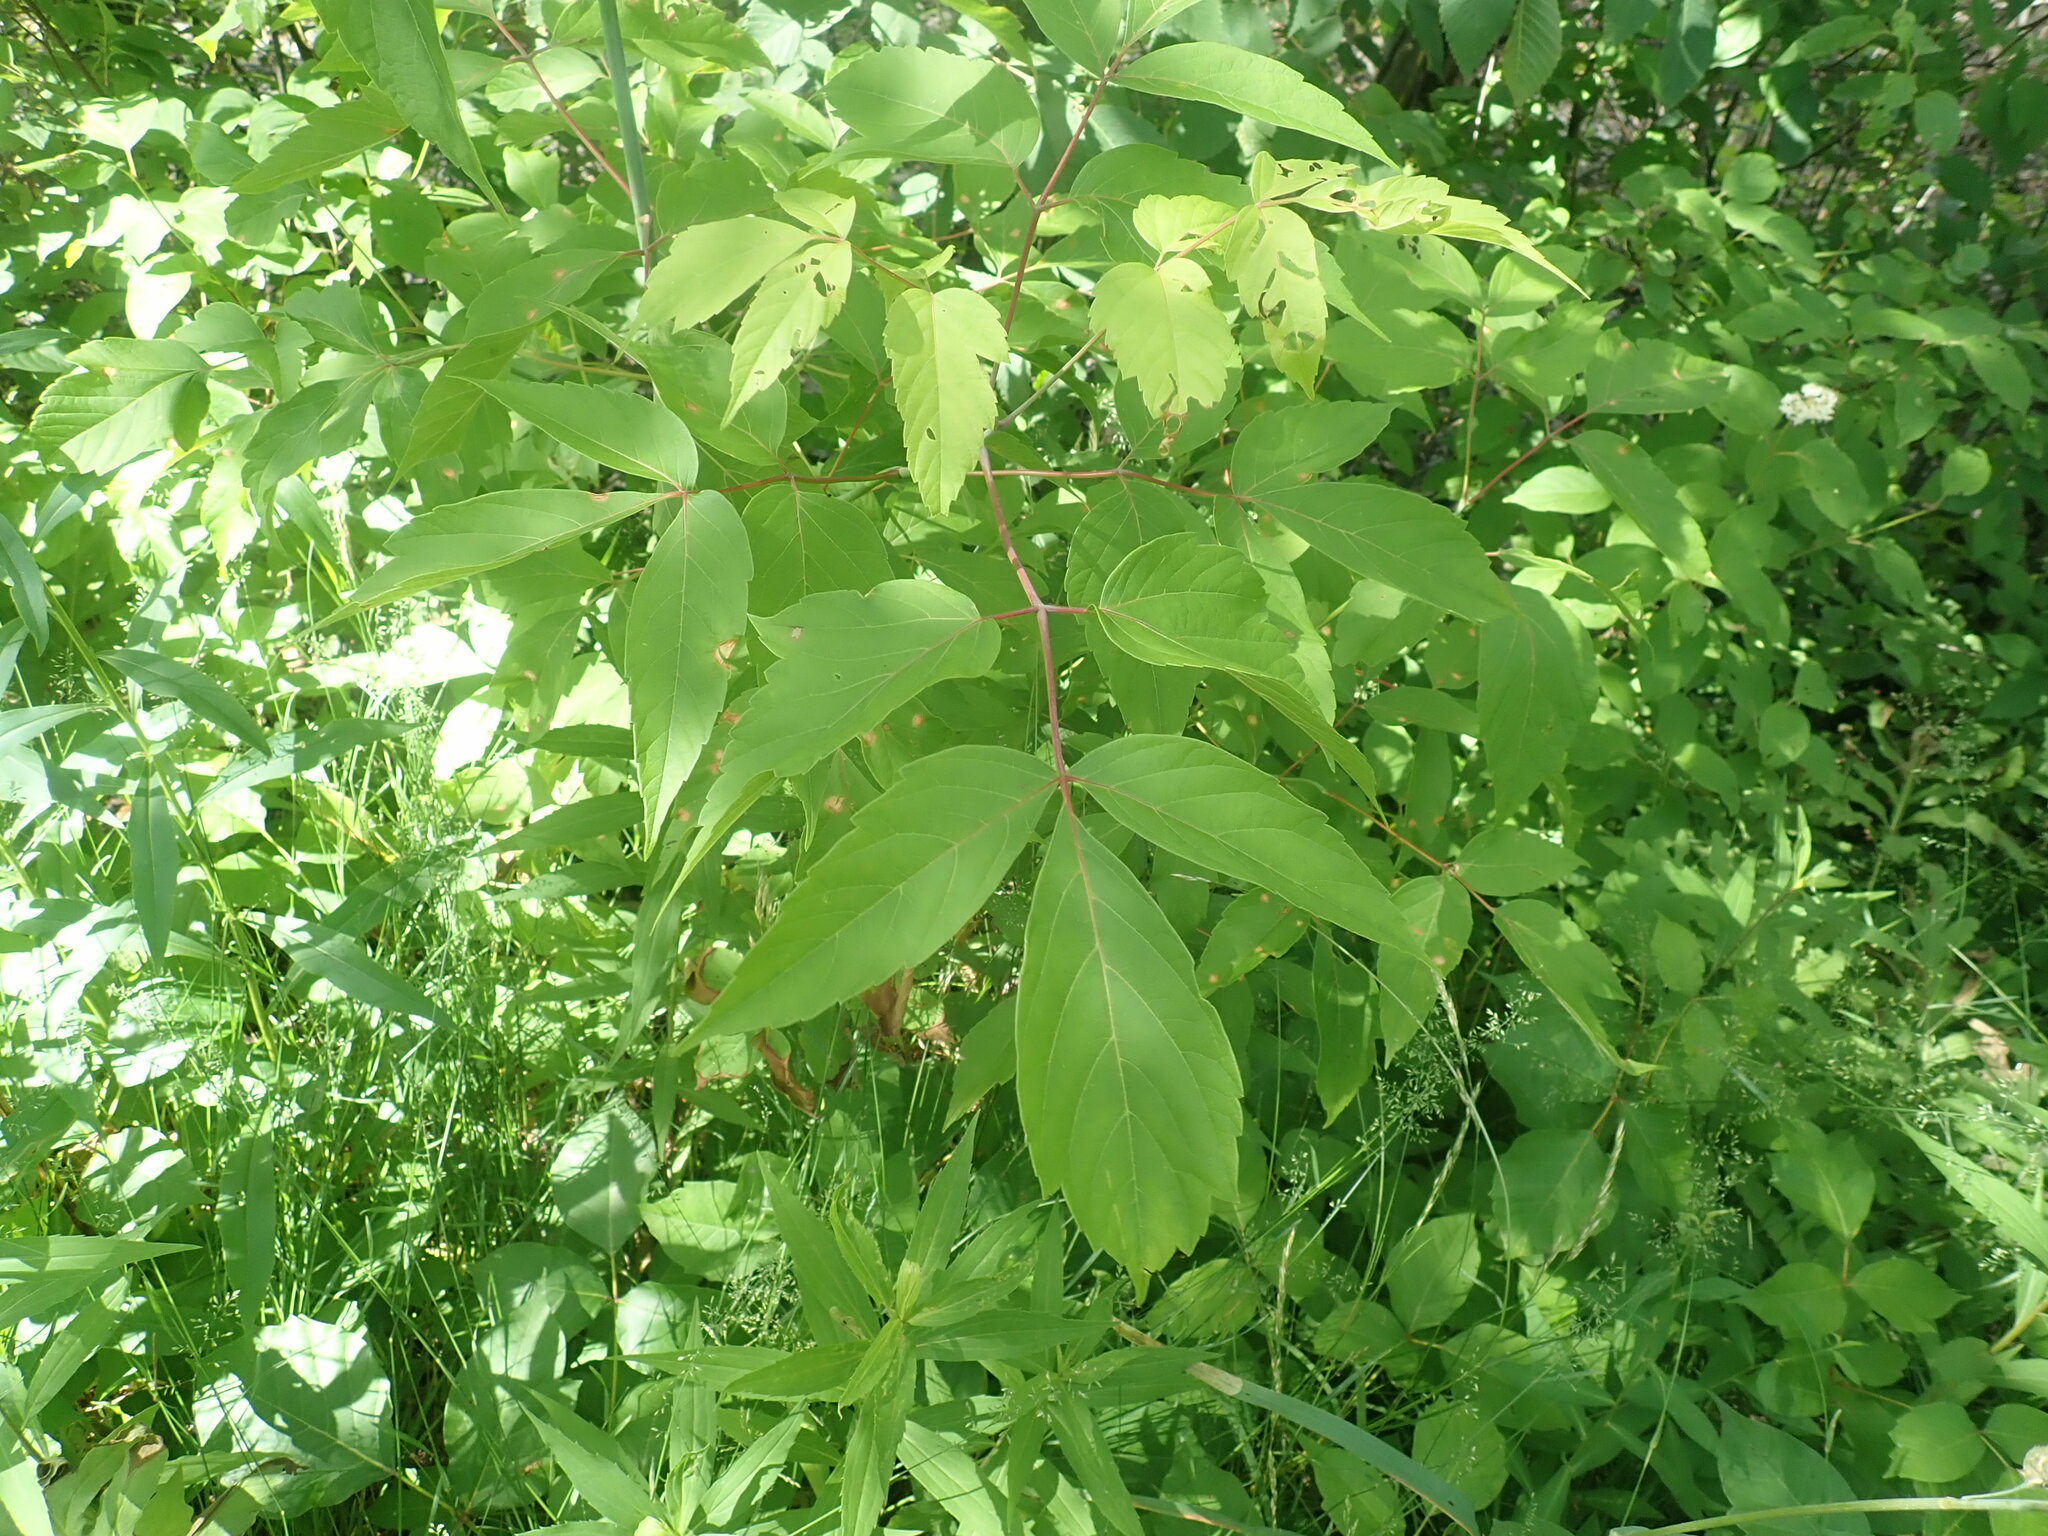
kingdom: Plantae
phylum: Tracheophyta
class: Magnoliopsida
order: Sapindales
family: Sapindaceae
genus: Acer
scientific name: Acer negundo
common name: Ashleaf maple
